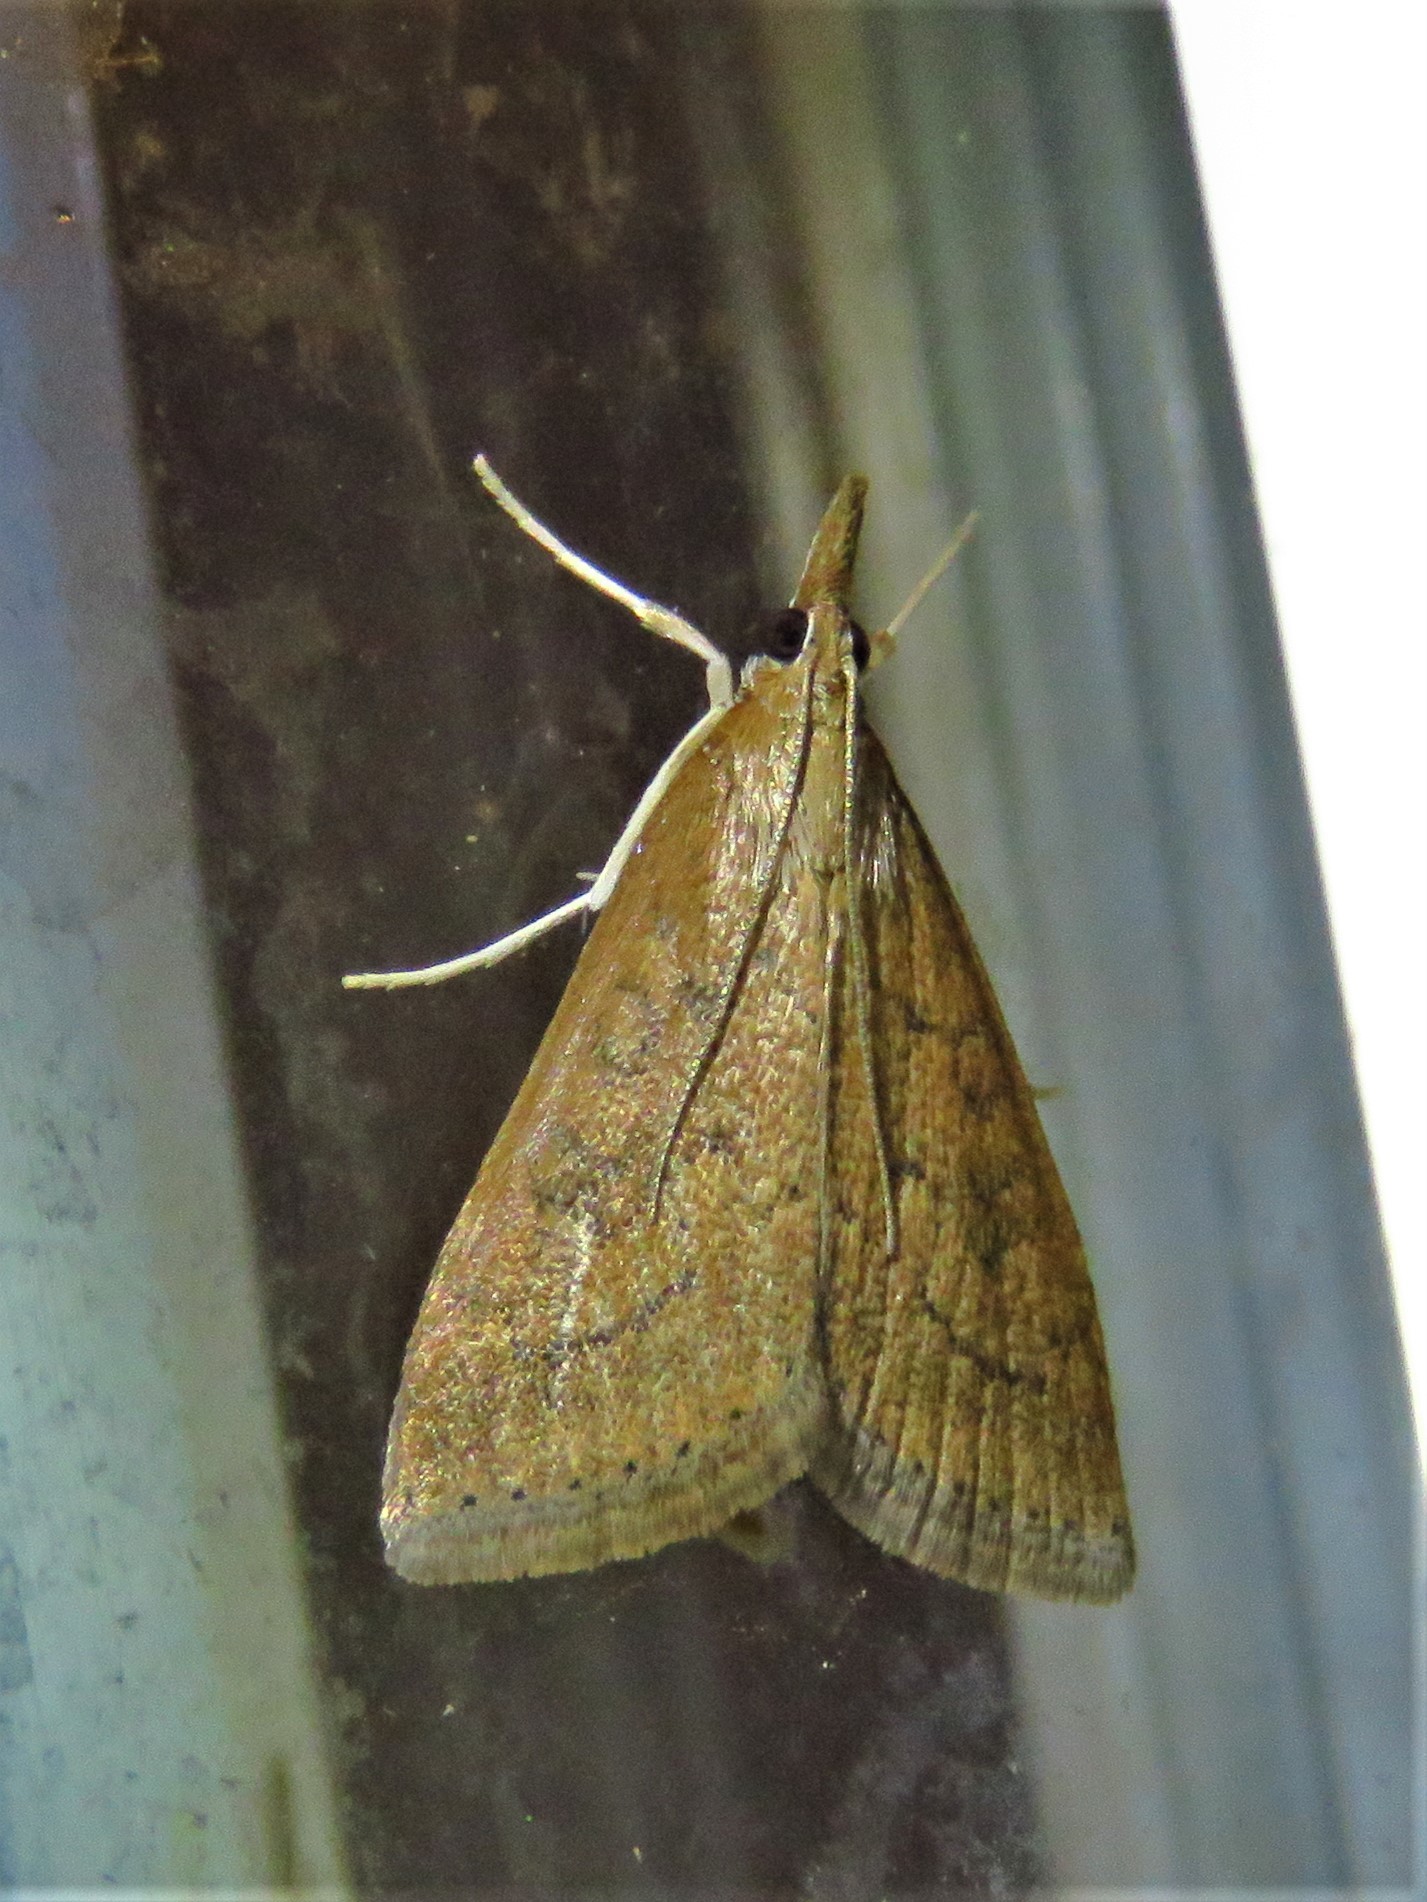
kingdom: Animalia
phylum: Arthropoda
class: Insecta
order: Lepidoptera
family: Crambidae
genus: Udea
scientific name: Udea rubigalis
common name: Celery leaftier moth
